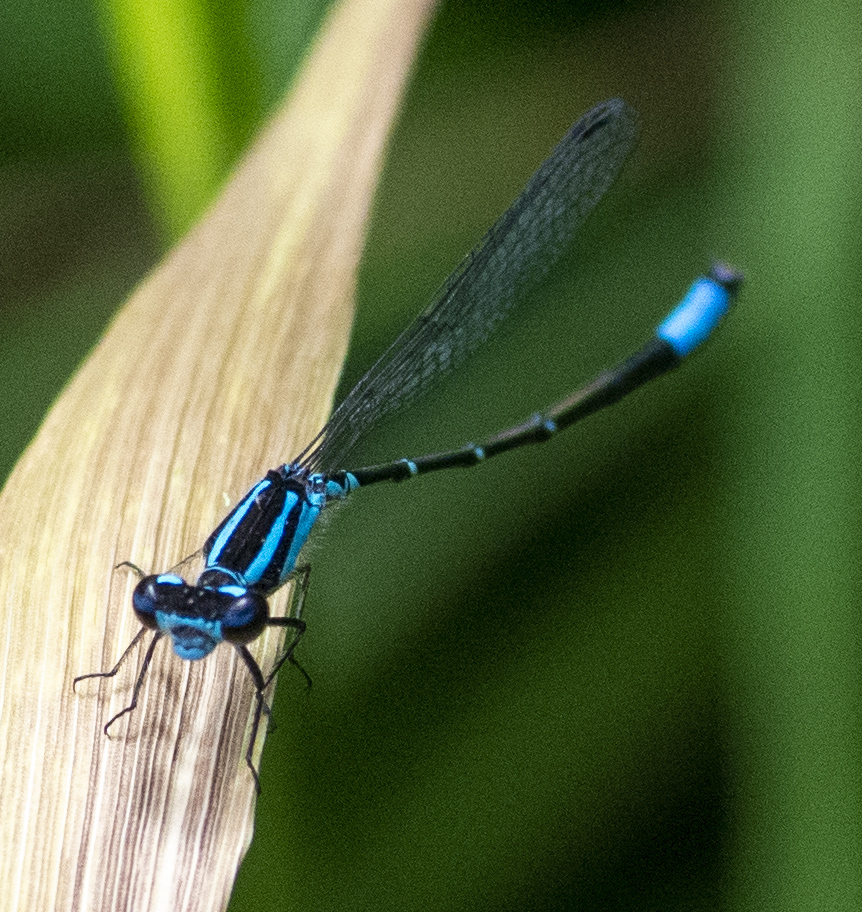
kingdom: Animalia
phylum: Arthropoda
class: Insecta
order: Odonata
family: Coenagrionidae
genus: Enallagma
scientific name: Enallagma geminatum
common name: Skimming bluet
